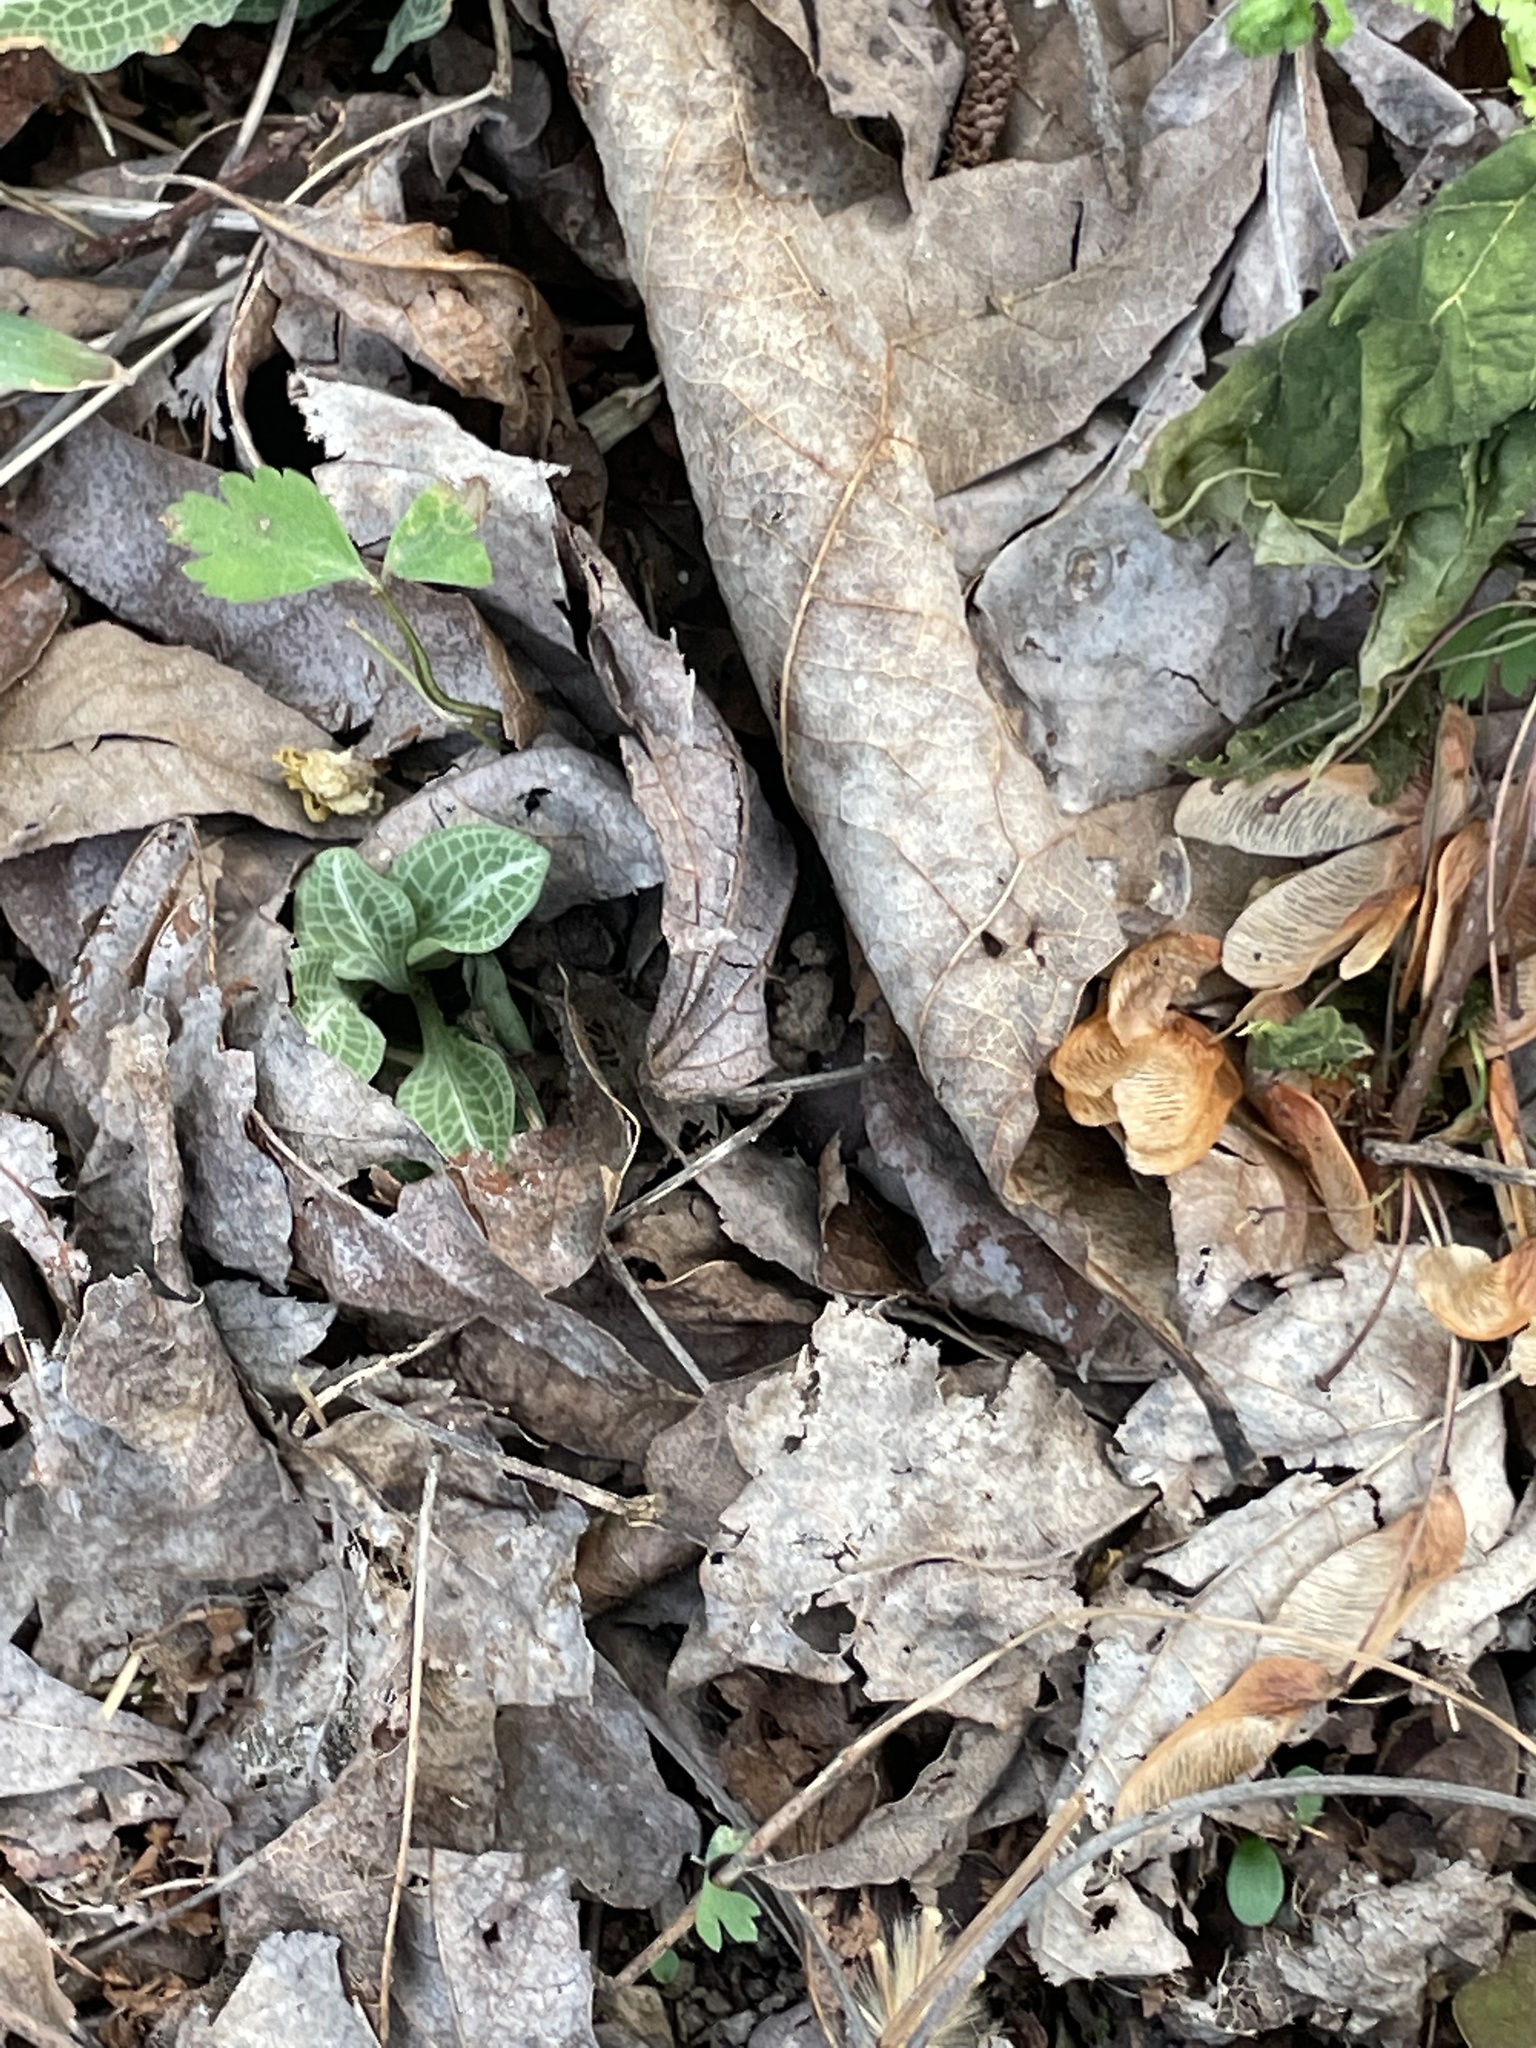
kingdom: Plantae
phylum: Tracheophyta
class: Liliopsida
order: Asparagales
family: Orchidaceae
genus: Goodyera
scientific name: Goodyera pubescens
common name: Downy rattlesnake-plantain
